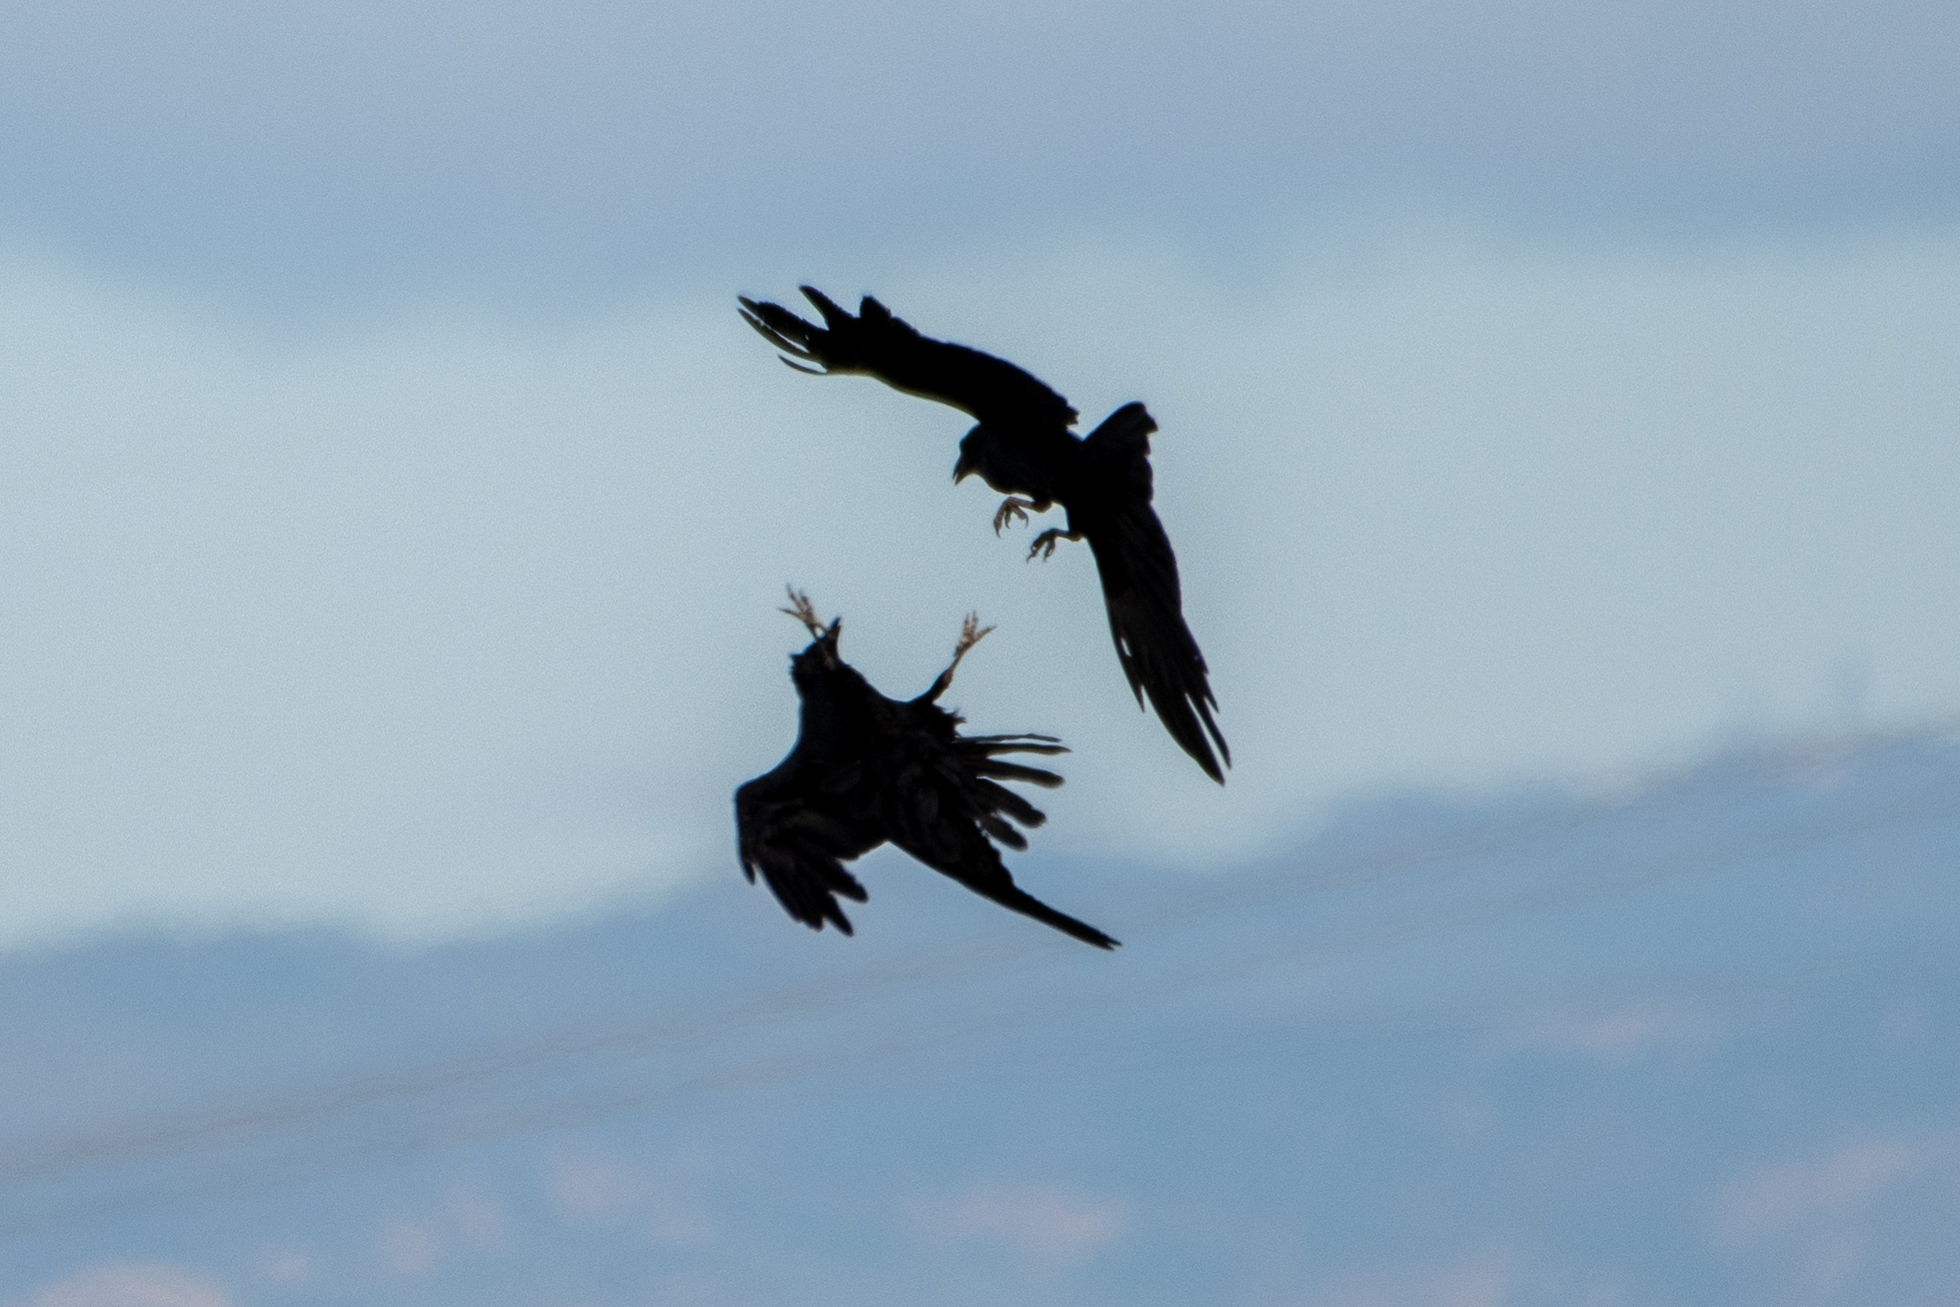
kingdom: Animalia
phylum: Chordata
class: Aves
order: Passeriformes
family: Corvidae
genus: Corvus
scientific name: Corvus corax
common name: Common raven
